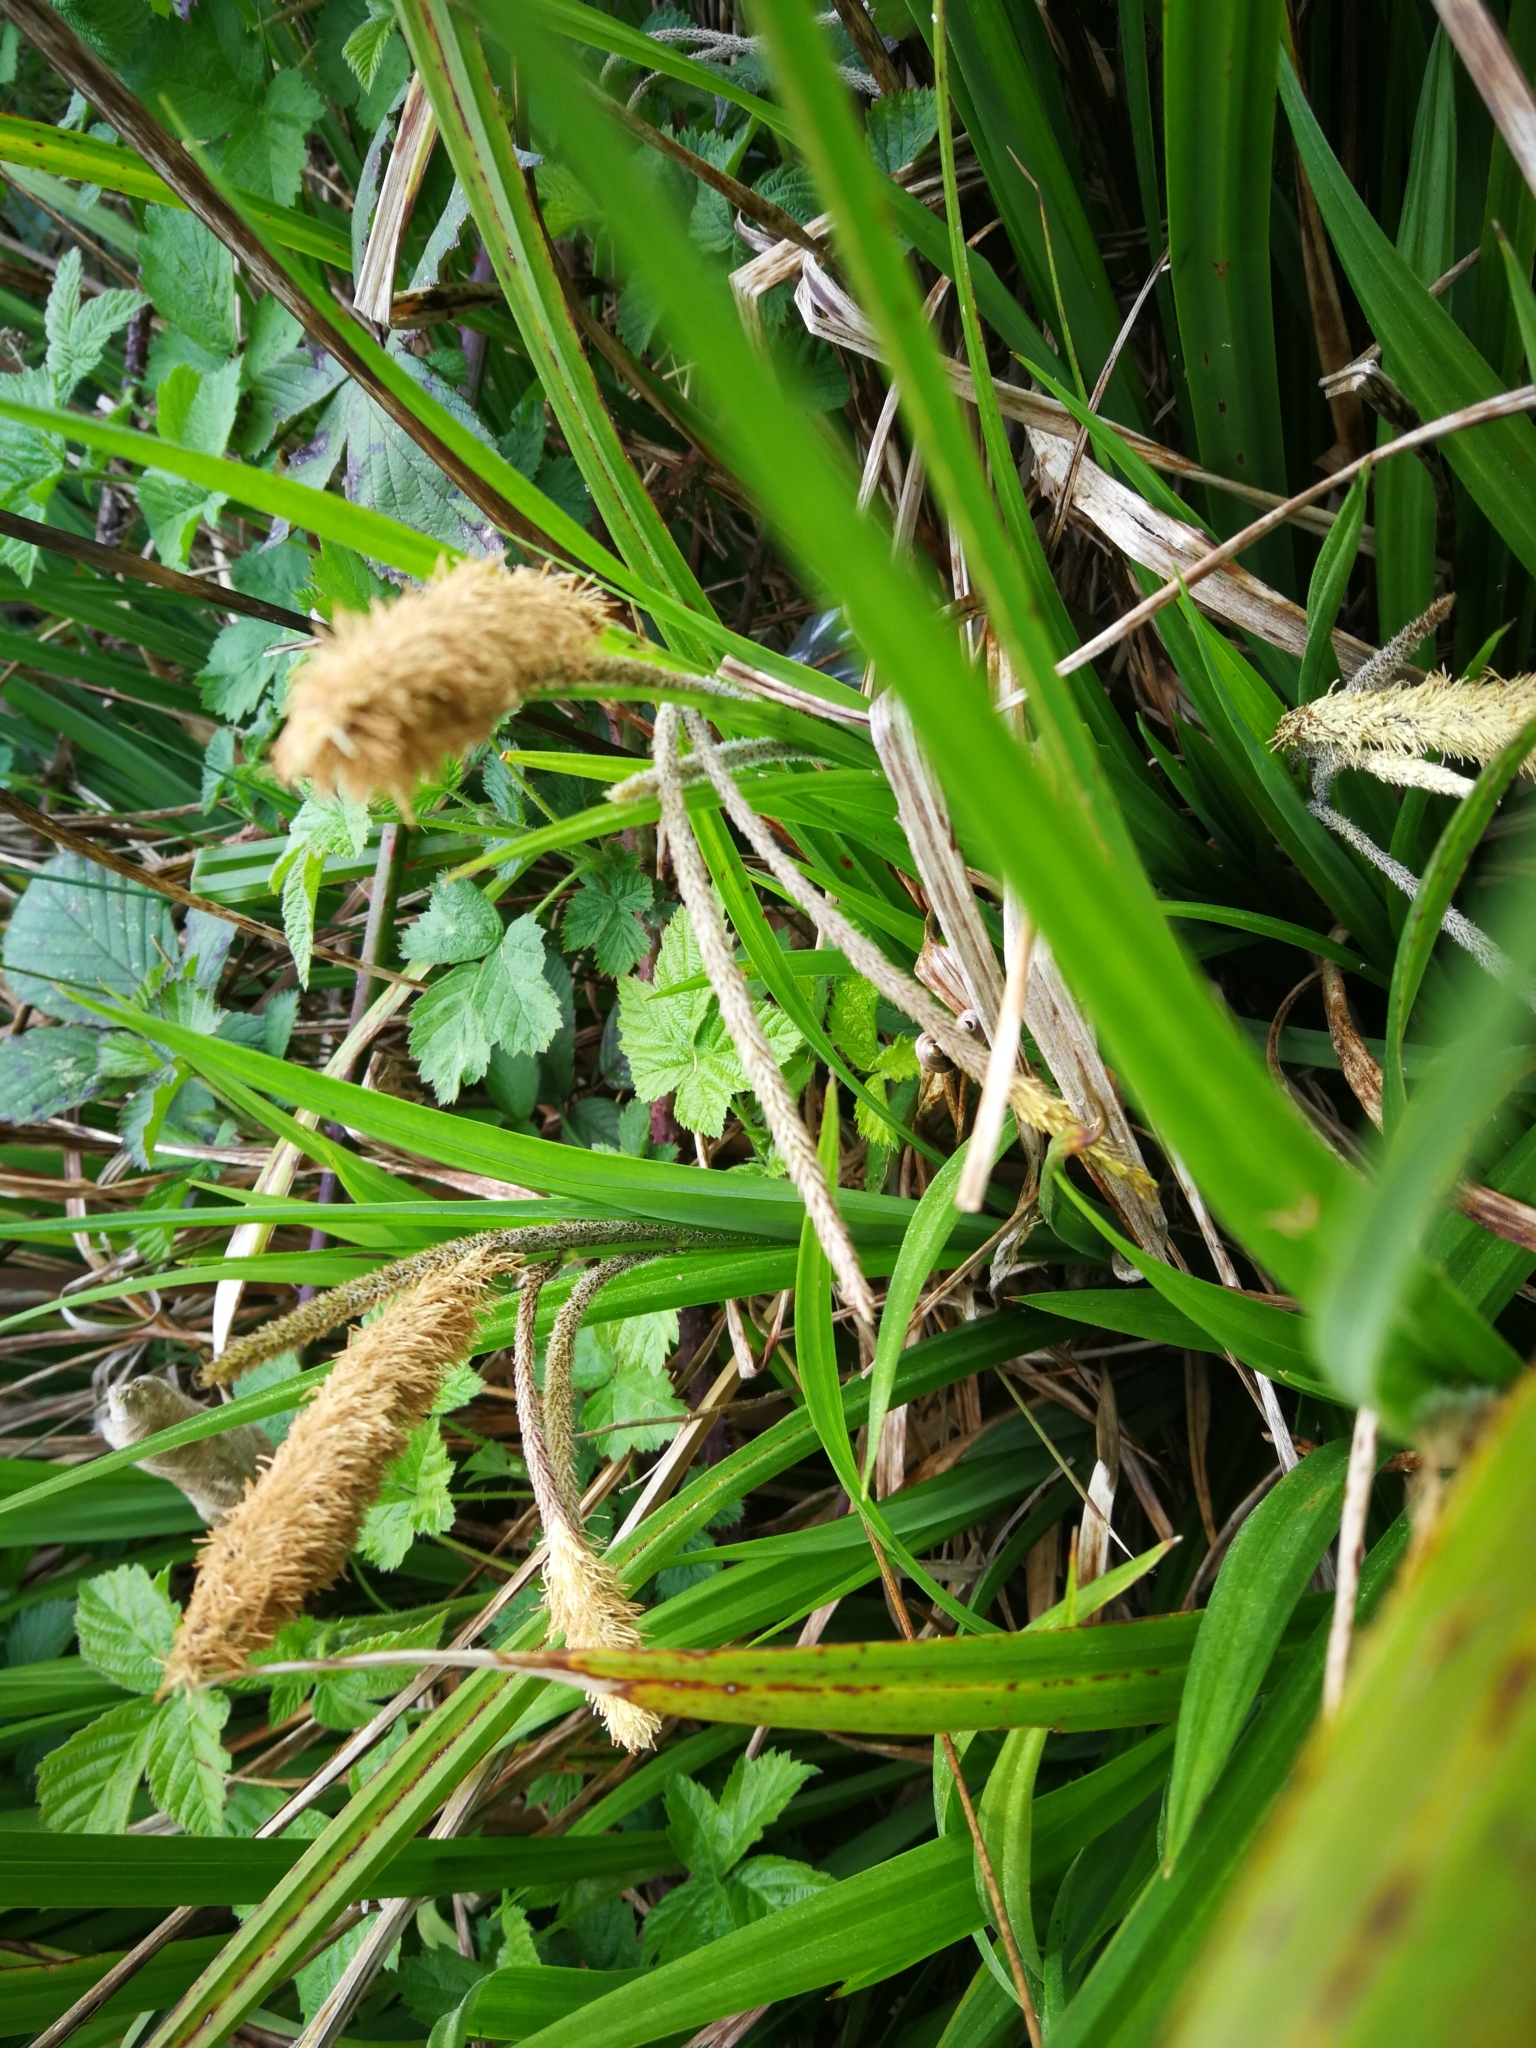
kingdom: Plantae
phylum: Tracheophyta
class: Liliopsida
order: Poales
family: Cyperaceae
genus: Carex
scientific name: Carex pendula
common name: Pendulous sedge
